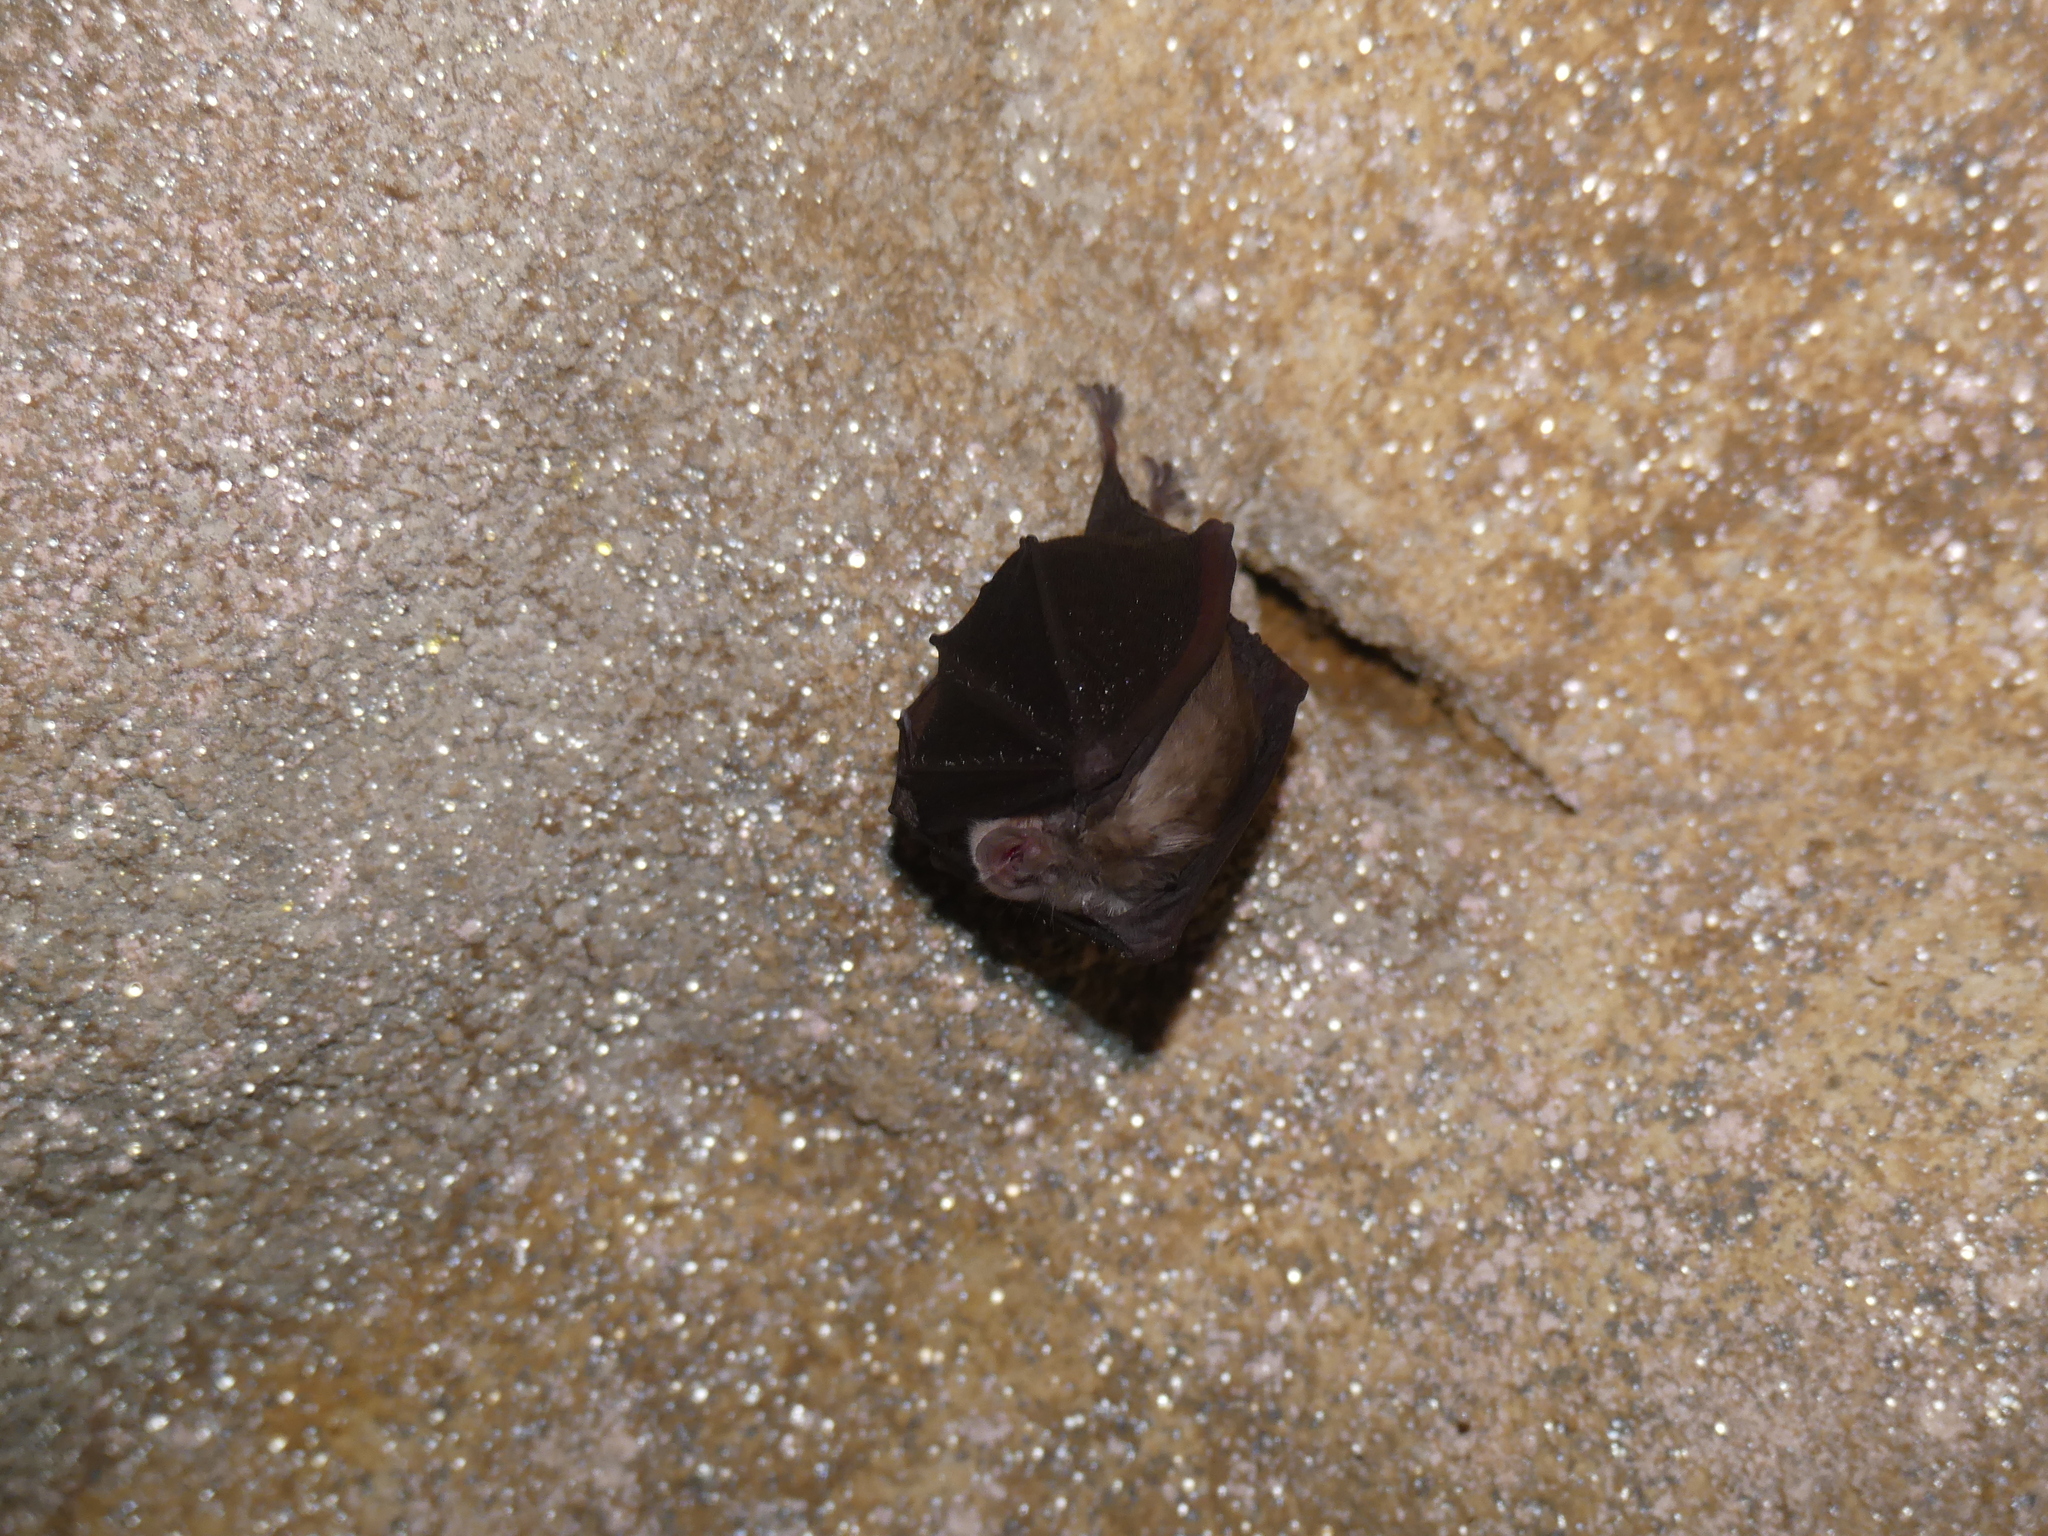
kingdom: Animalia
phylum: Chordata
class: Mammalia
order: Chiroptera
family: Rhinolophidae
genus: Rhinolophus
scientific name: Rhinolophus hipposideros
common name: Lesser horseshoe bat
